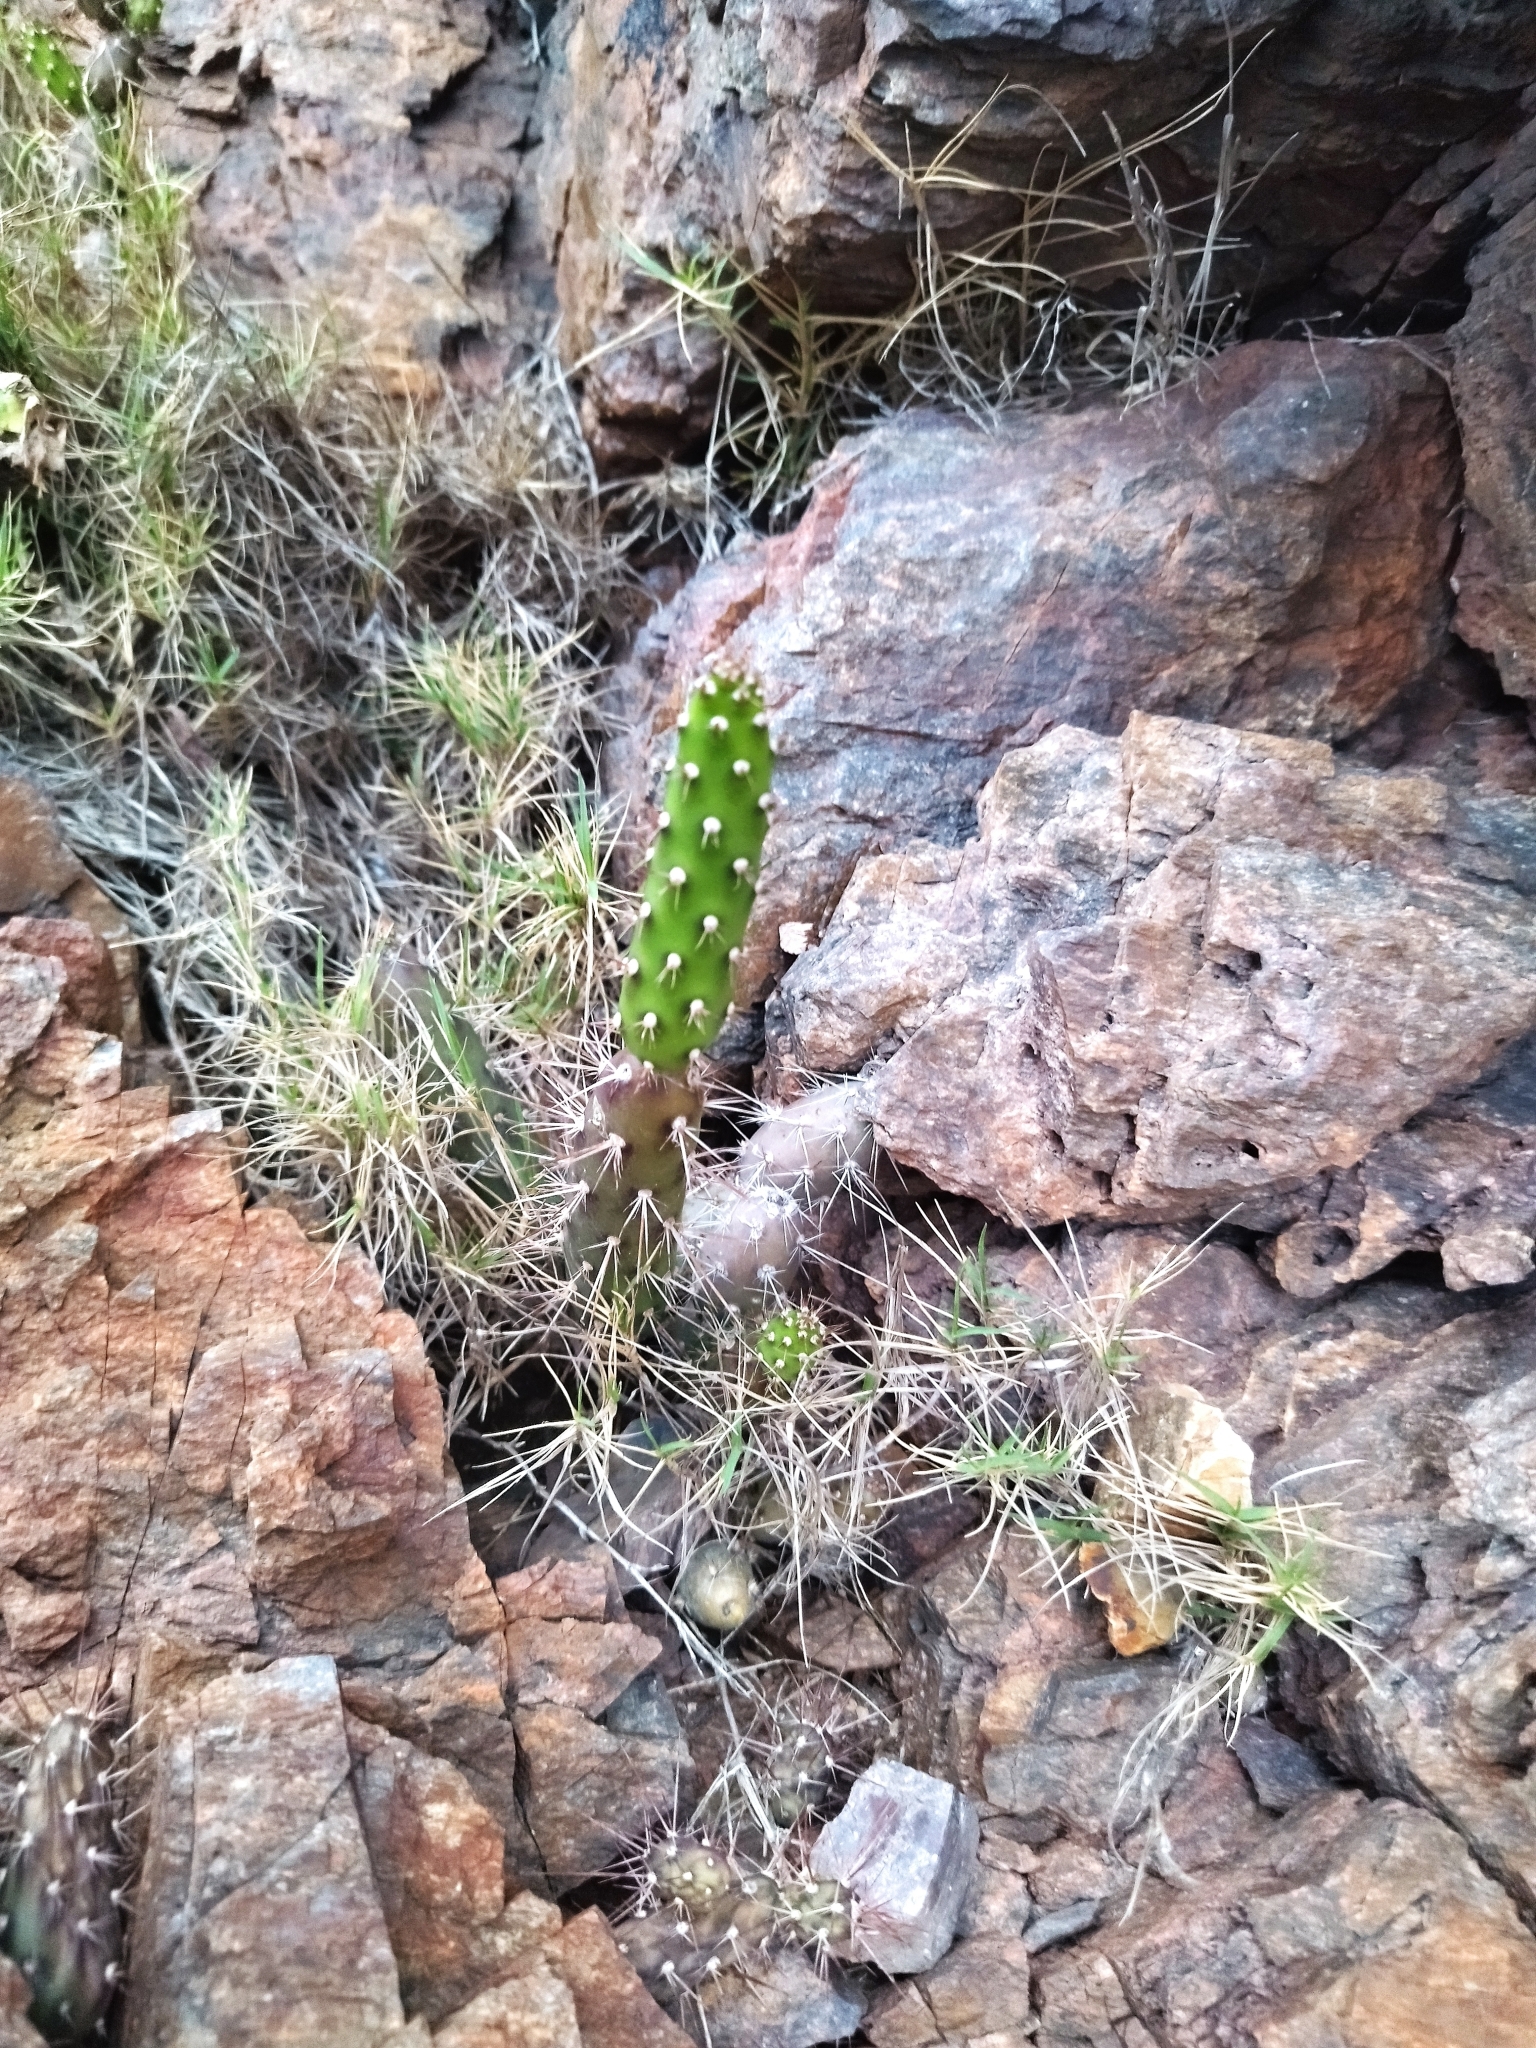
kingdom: Plantae
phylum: Tracheophyta
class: Magnoliopsida
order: Caryophyllales
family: Cactaceae
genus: Opuntia
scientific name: Opuntia aurantiaca
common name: Jointed pricklypear
